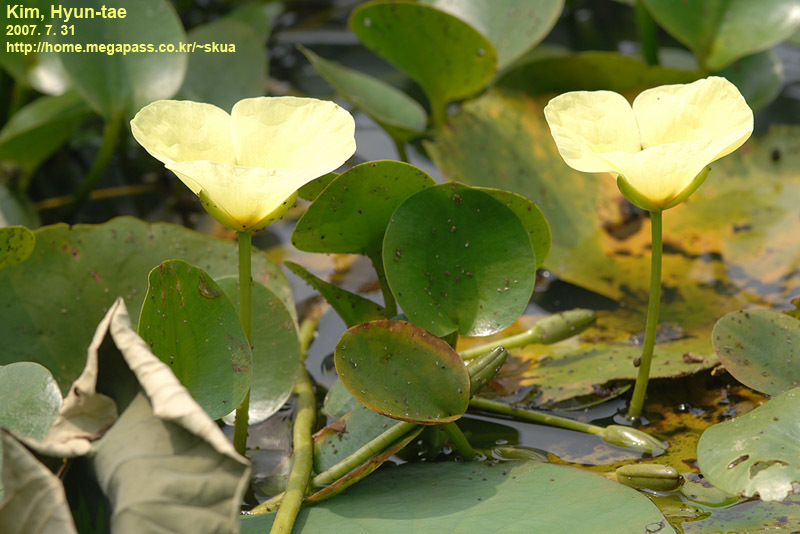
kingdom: Plantae
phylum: Tracheophyta
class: Liliopsida
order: Alismatales
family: Alismataceae
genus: Hydrocleys
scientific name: Hydrocleys nymphoides
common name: Water-poppy
